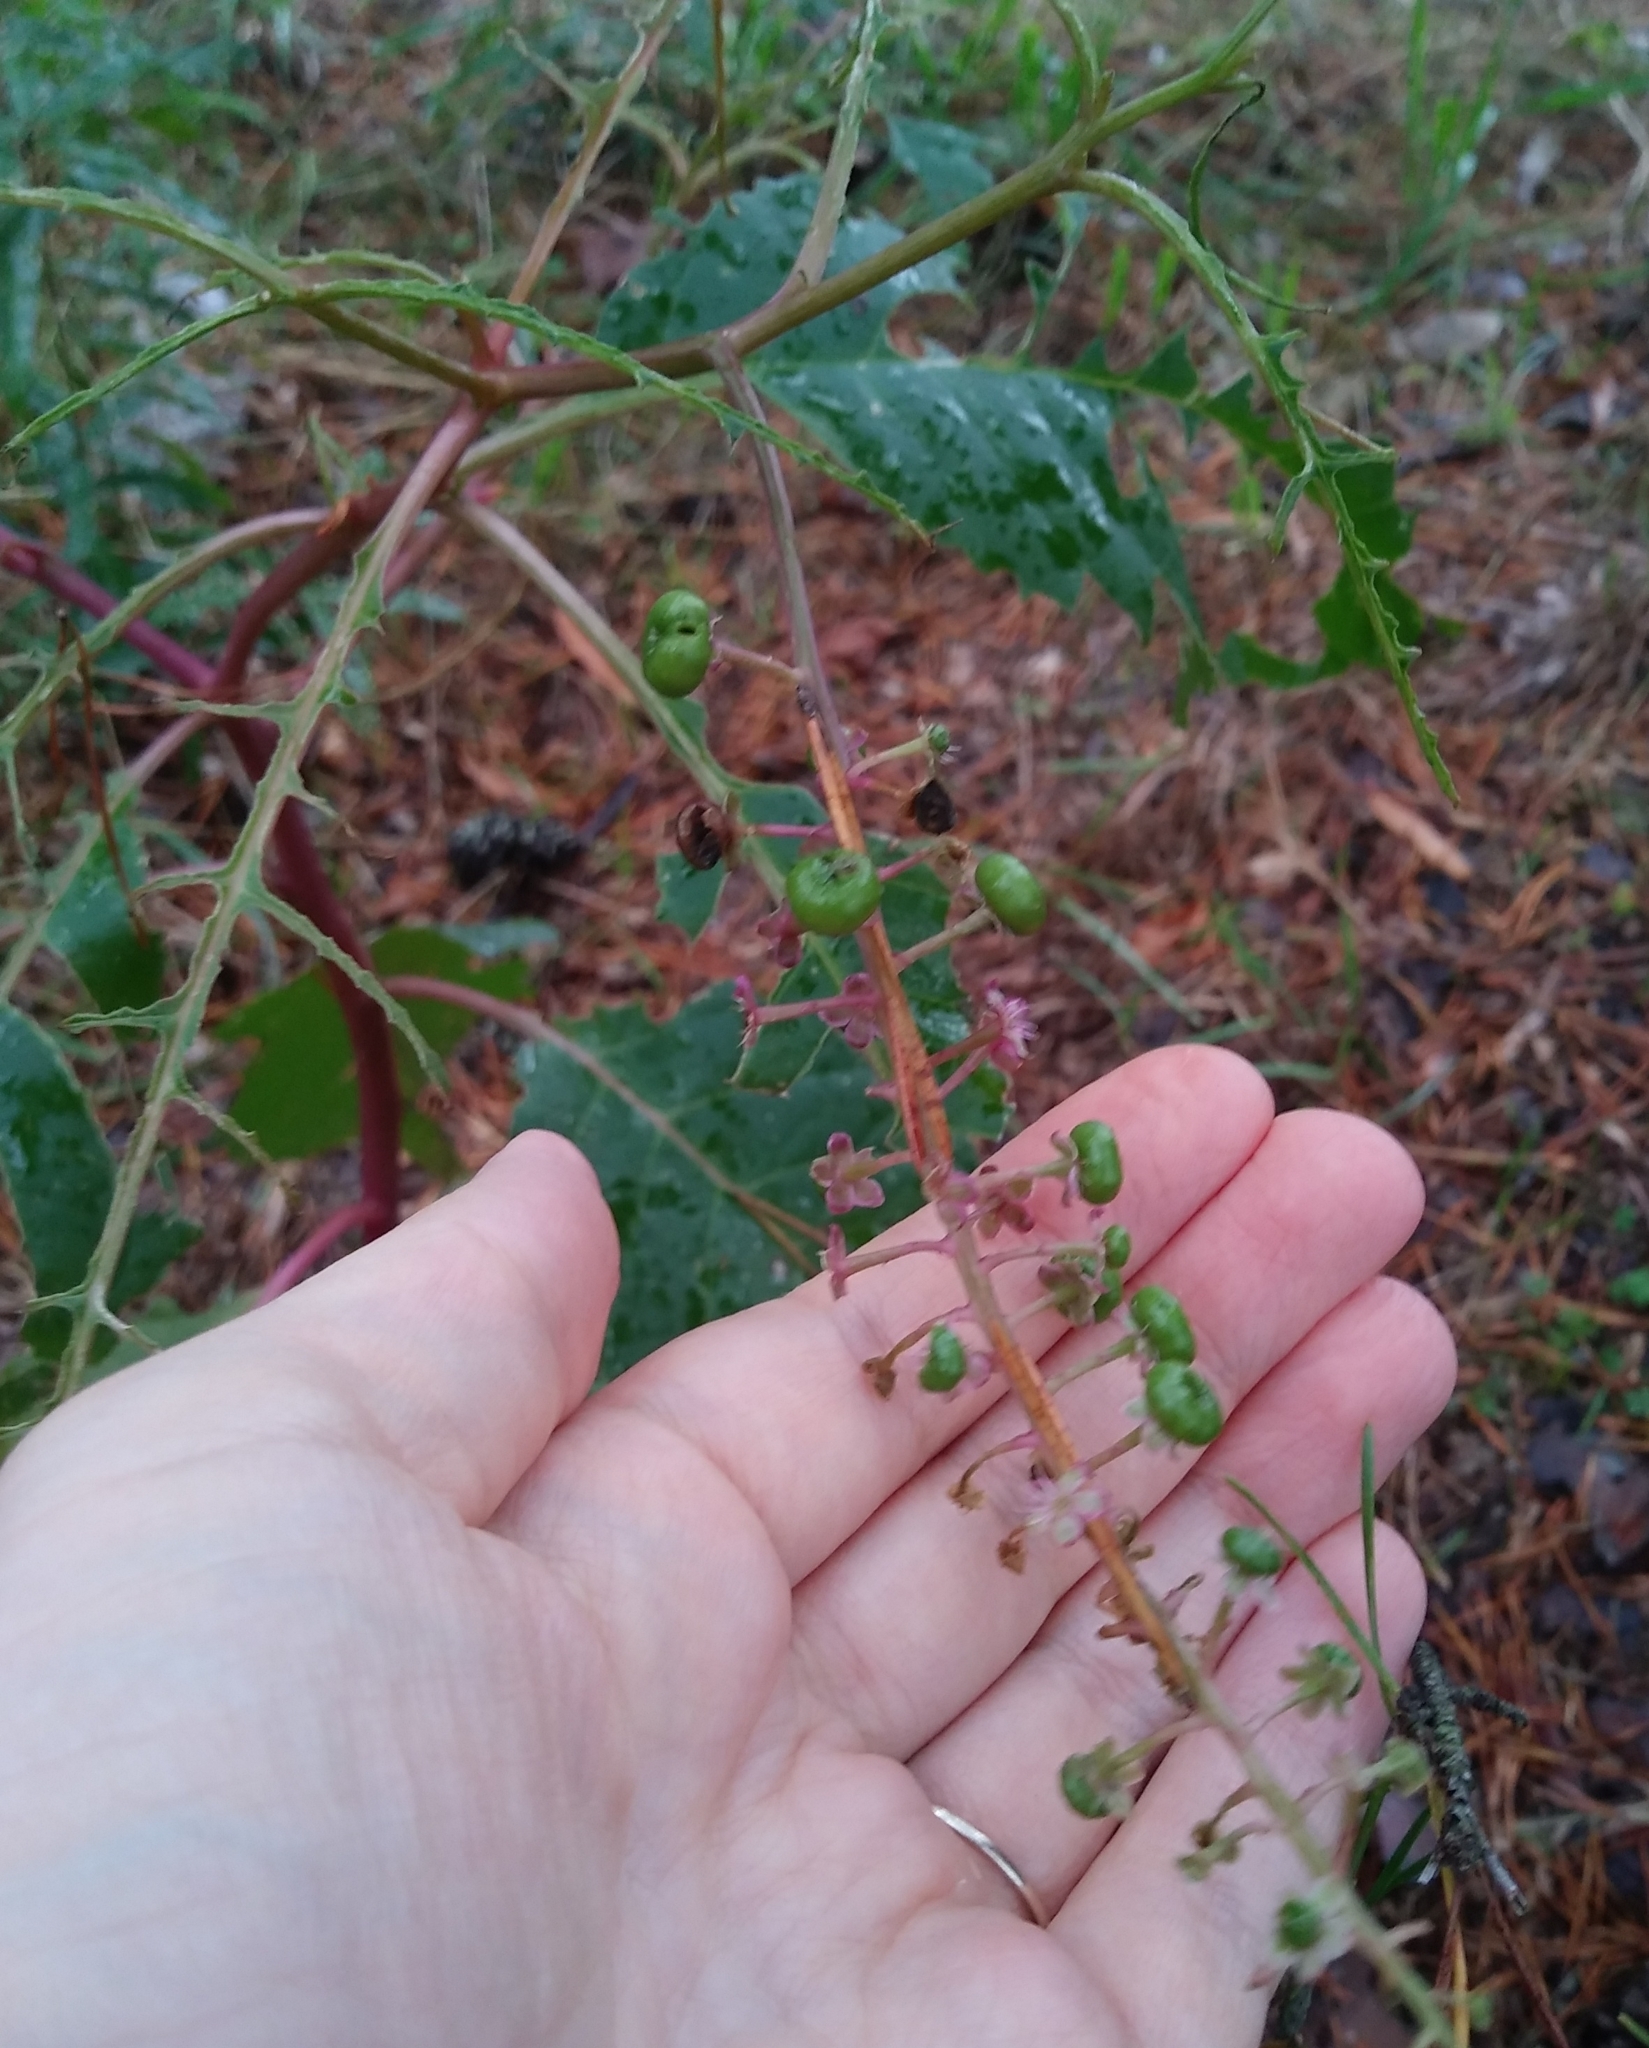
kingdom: Plantae
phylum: Tracheophyta
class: Magnoliopsida
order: Caryophyllales
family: Phytolaccaceae
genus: Phytolacca
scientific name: Phytolacca americana
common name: American pokeweed
